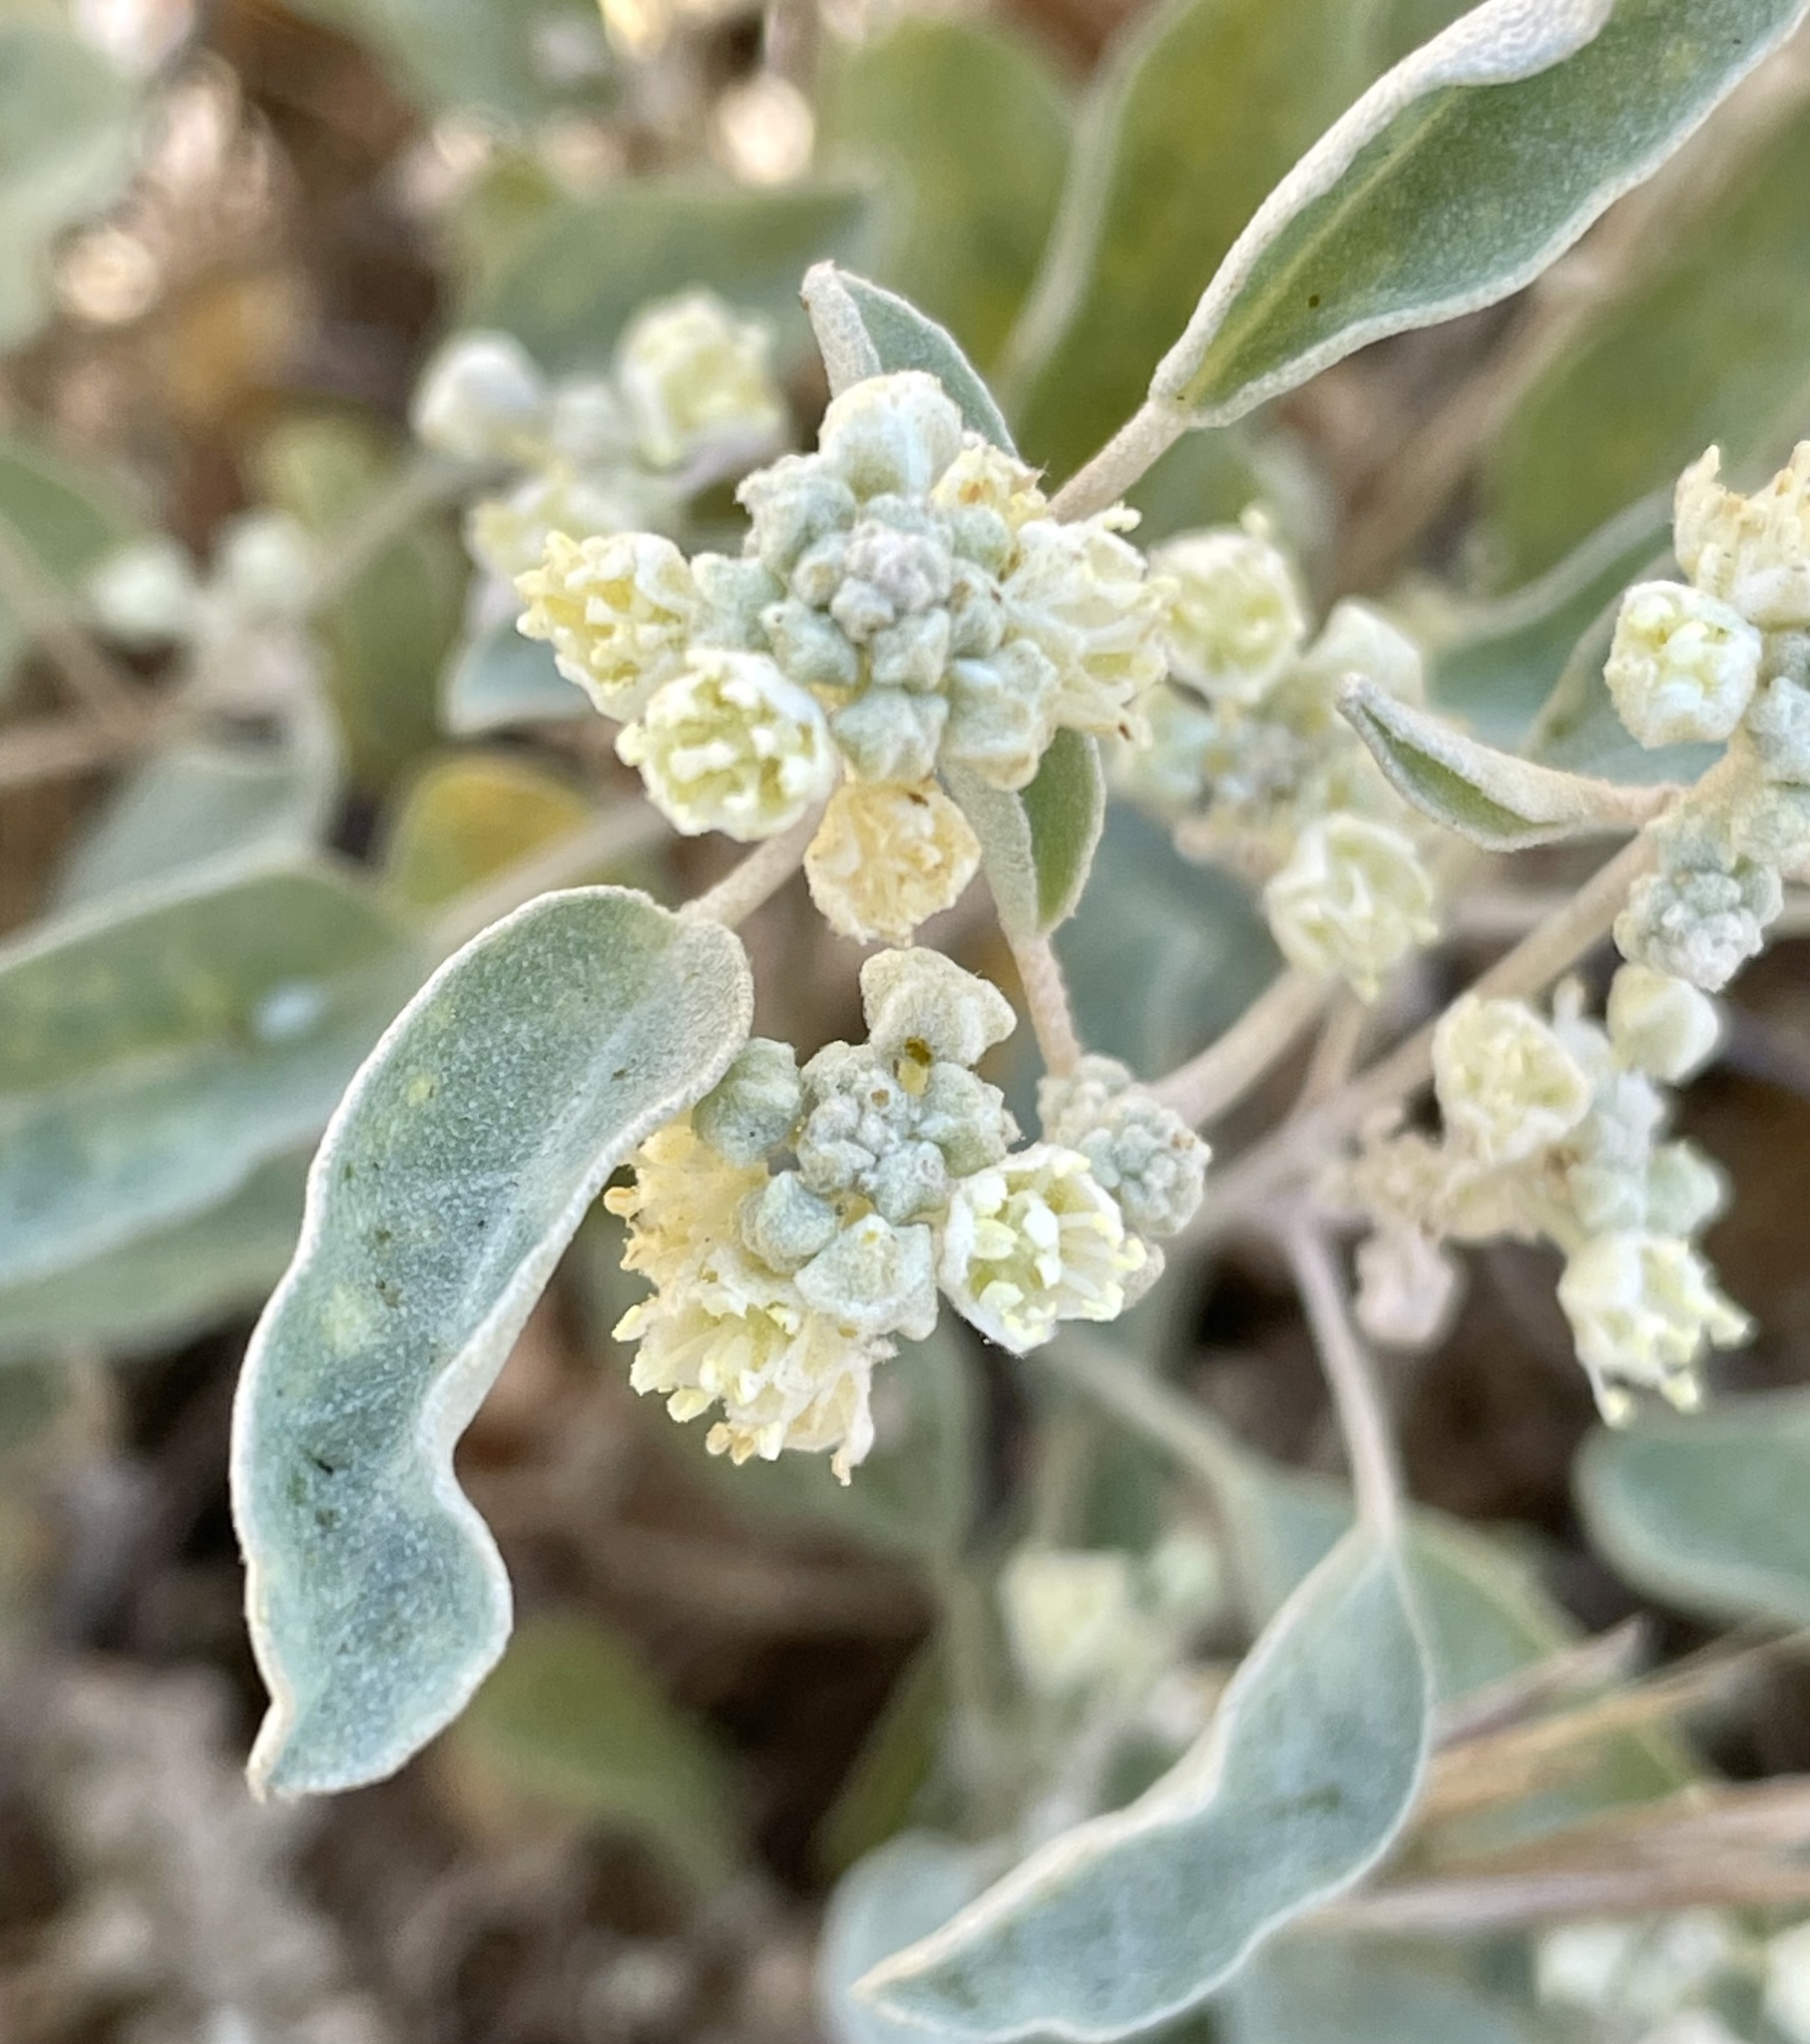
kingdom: Plantae
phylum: Tracheophyta
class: Magnoliopsida
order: Malpighiales
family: Euphorbiaceae
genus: Croton
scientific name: Croton californicus
